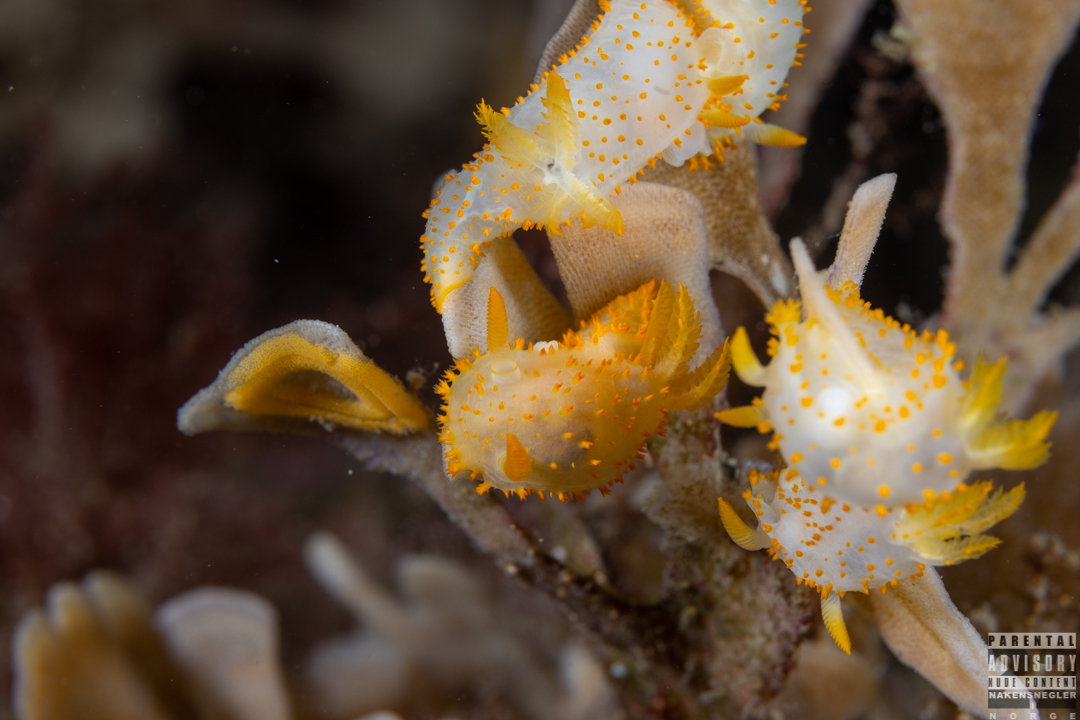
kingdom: Animalia
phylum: Mollusca
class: Gastropoda
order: Nudibranchia
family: Polyceridae
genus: Crimora
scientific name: Crimora papillata
